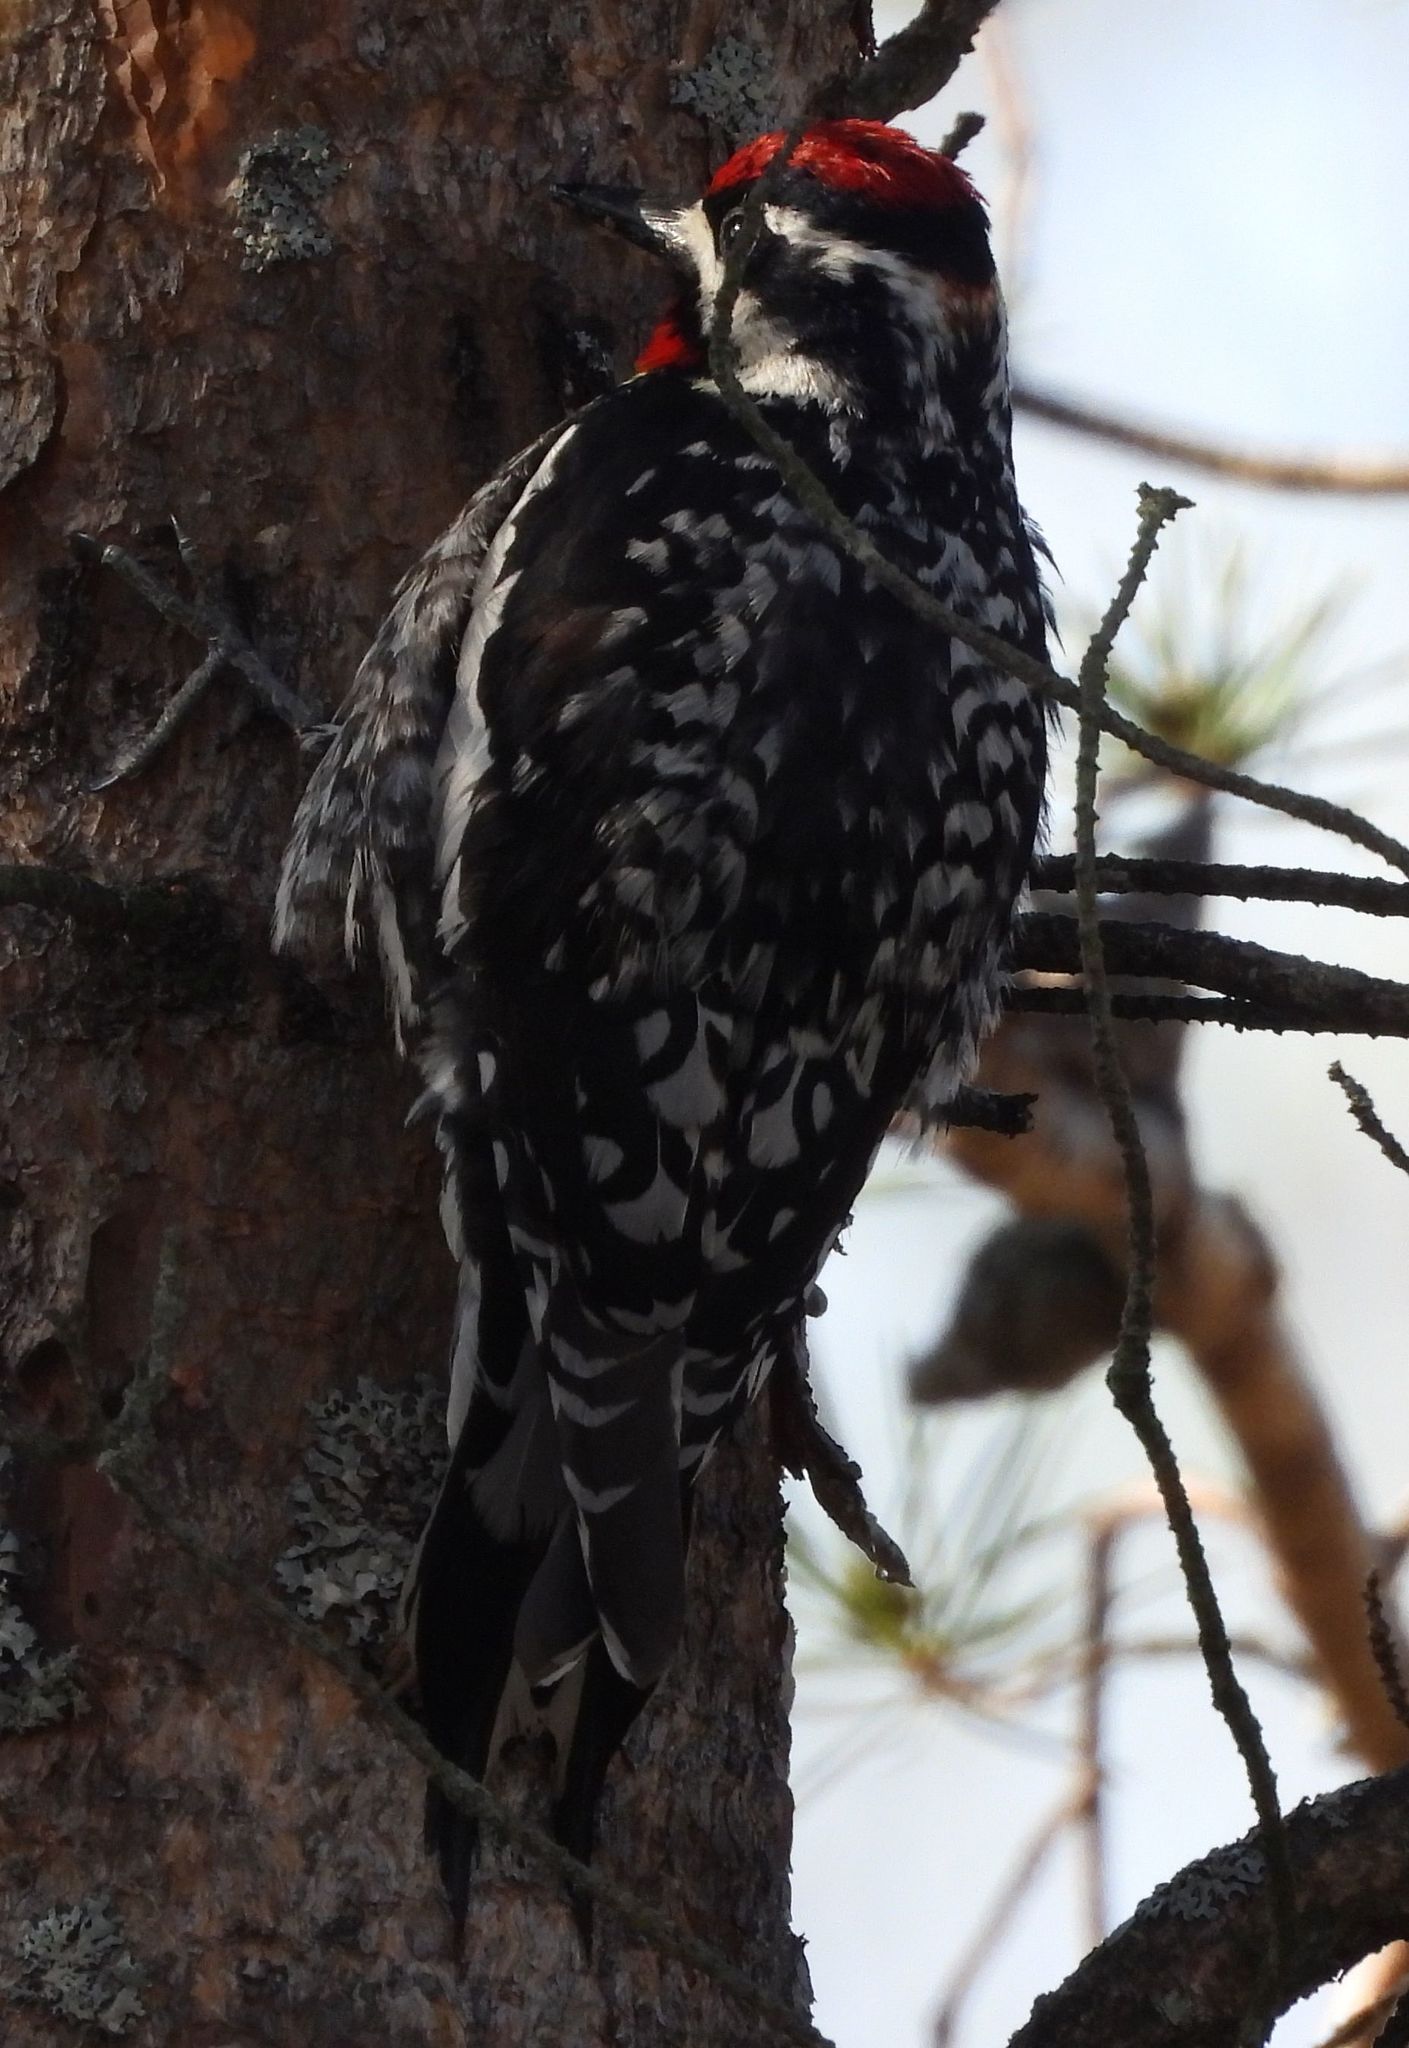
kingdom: Animalia
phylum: Chordata
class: Aves
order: Piciformes
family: Picidae
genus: Sphyrapicus
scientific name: Sphyrapicus varius
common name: Yellow-bellied sapsucker
